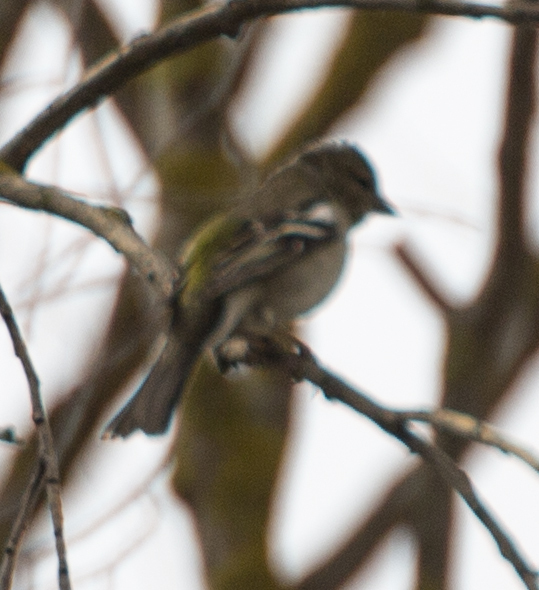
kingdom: Animalia
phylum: Chordata
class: Aves
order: Passeriformes
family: Fringillidae
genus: Fringilla
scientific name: Fringilla coelebs
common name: Common chaffinch
